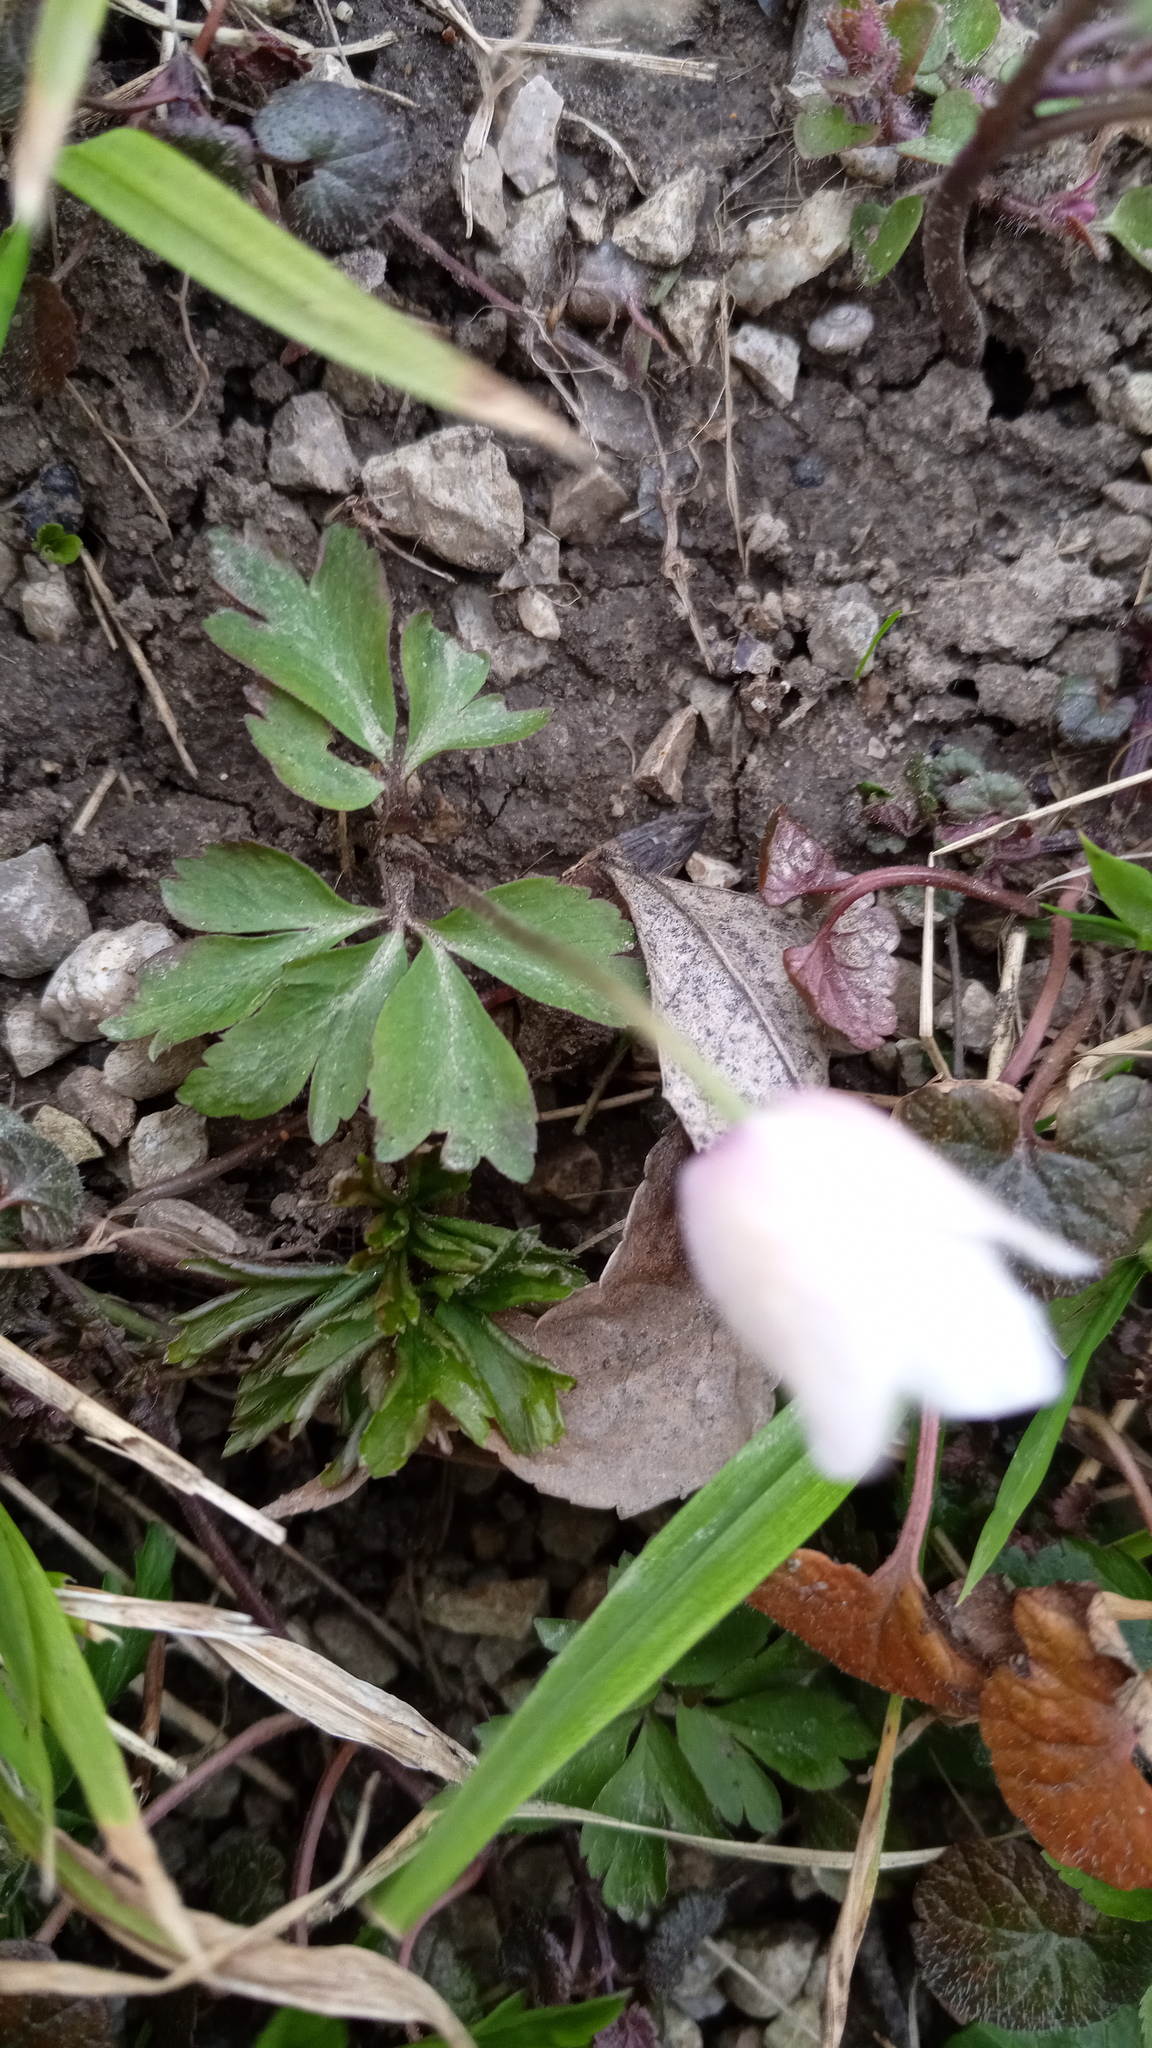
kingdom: Plantae
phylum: Tracheophyta
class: Magnoliopsida
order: Ranunculales
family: Ranunculaceae
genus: Anemone
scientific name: Anemone nemorosa
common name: Wood anemone
